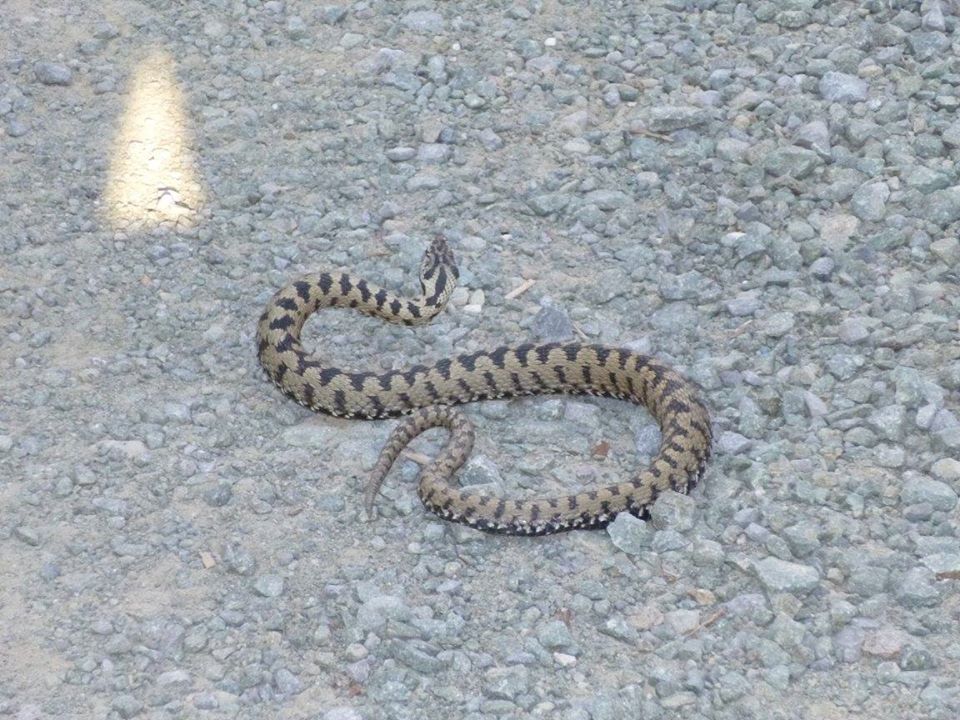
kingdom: Animalia
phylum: Chordata
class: Squamata
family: Viperidae
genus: Vipera
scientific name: Vipera berus
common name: Adder
